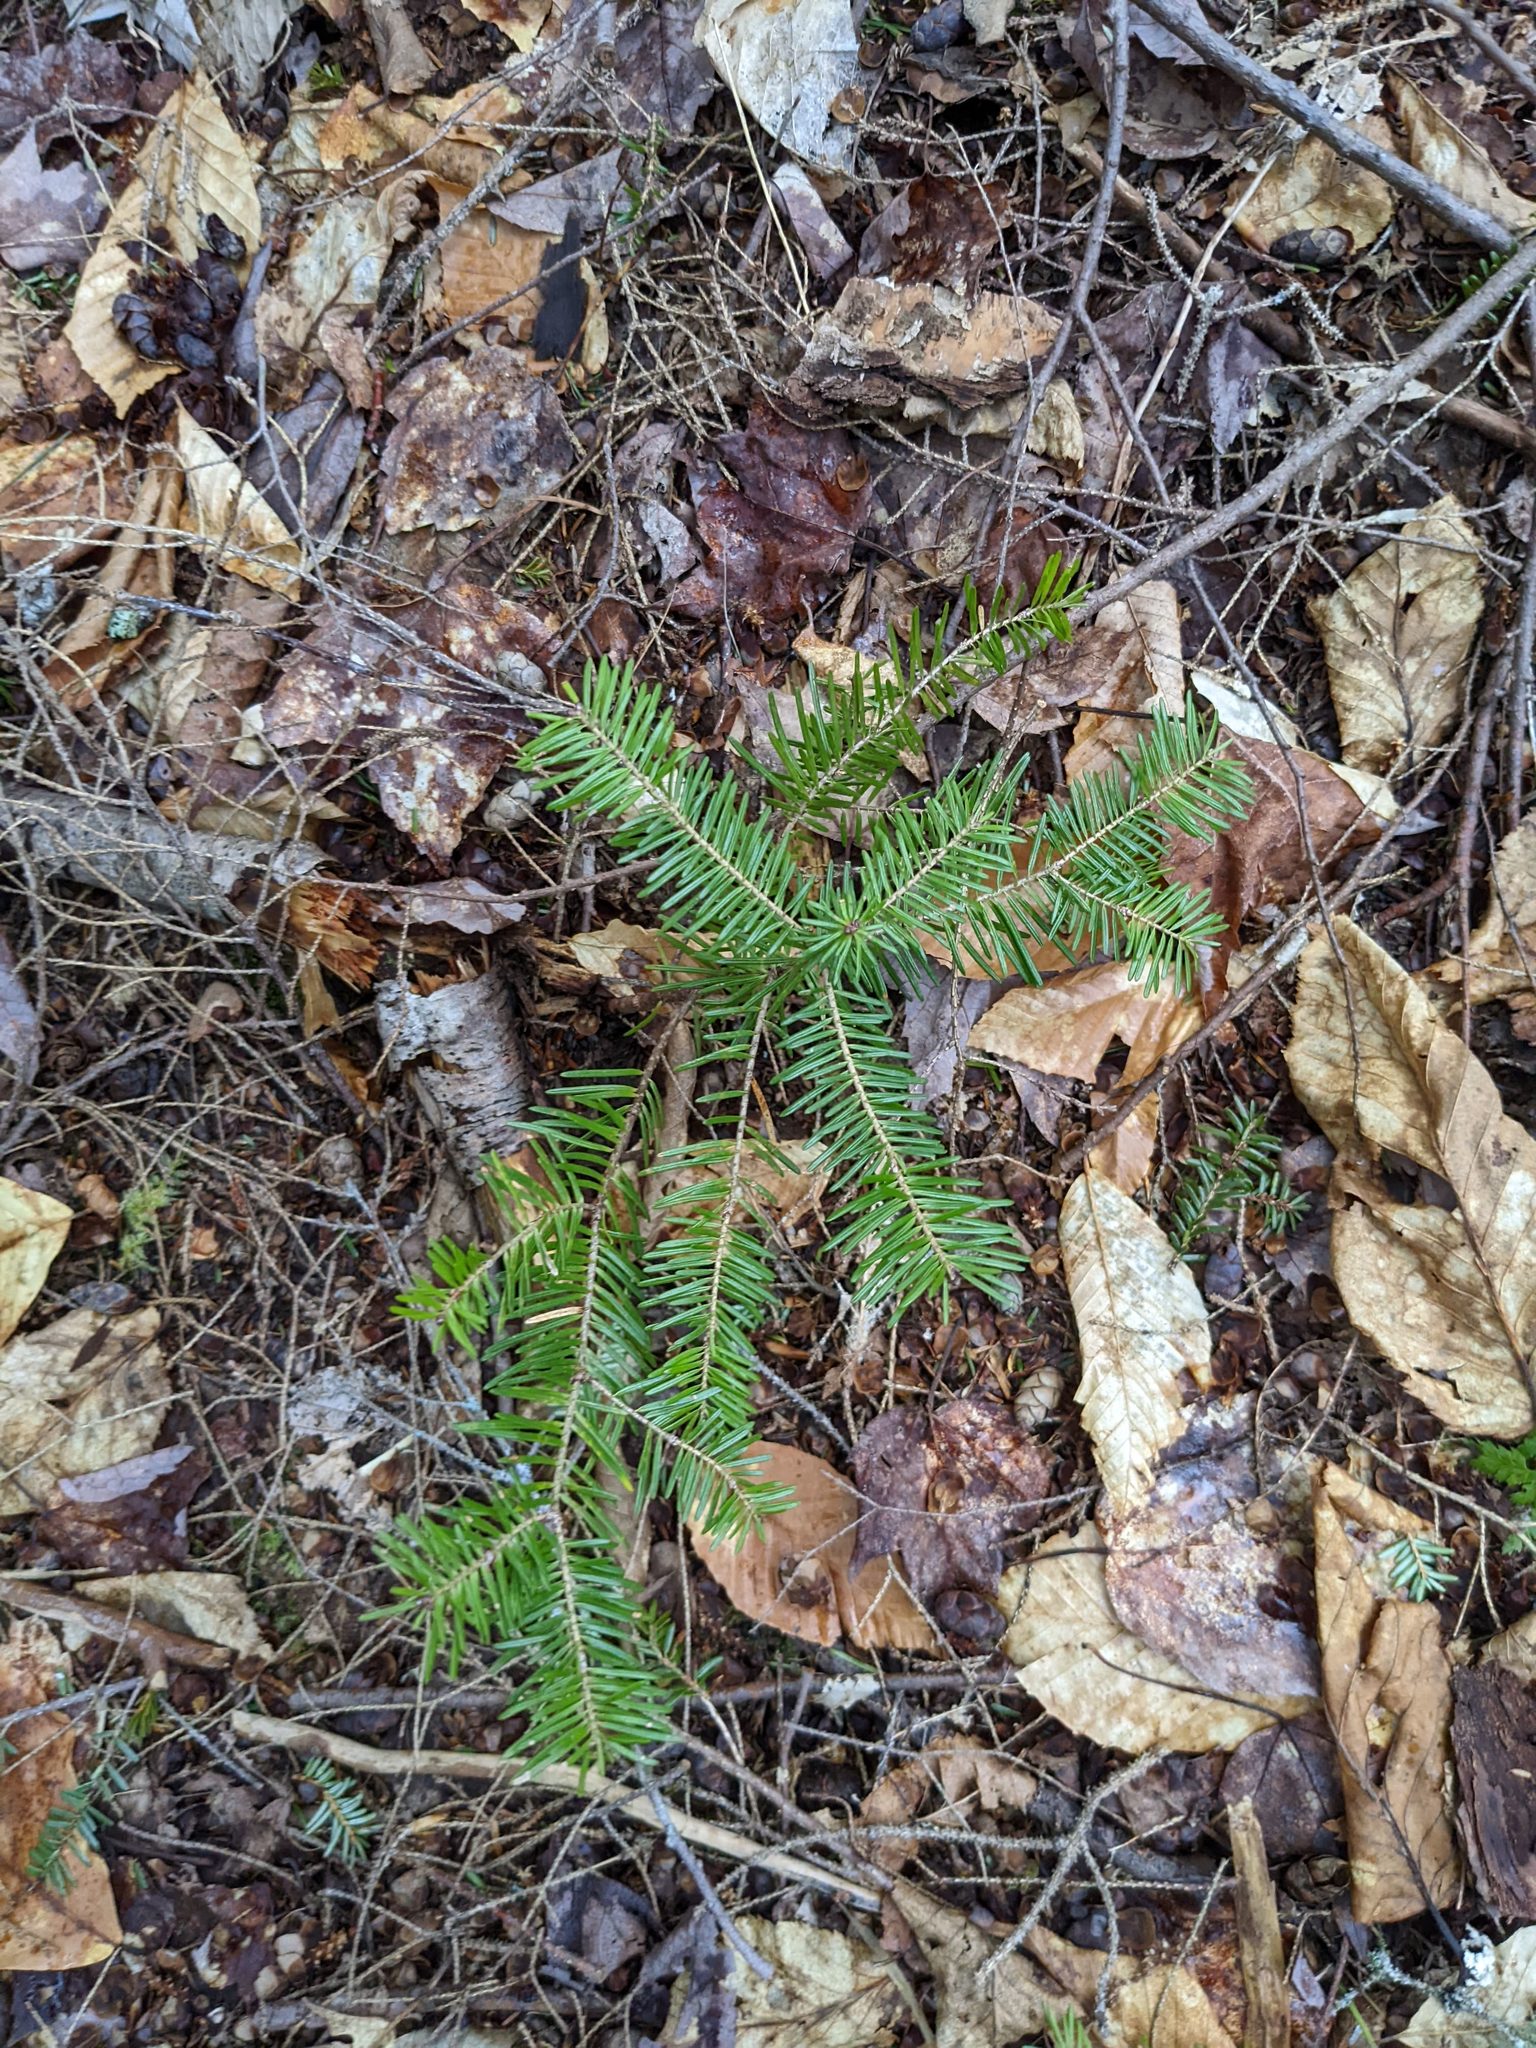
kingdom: Plantae
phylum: Tracheophyta
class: Pinopsida
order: Pinales
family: Pinaceae
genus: Abies
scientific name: Abies balsamea
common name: Balsam fir
